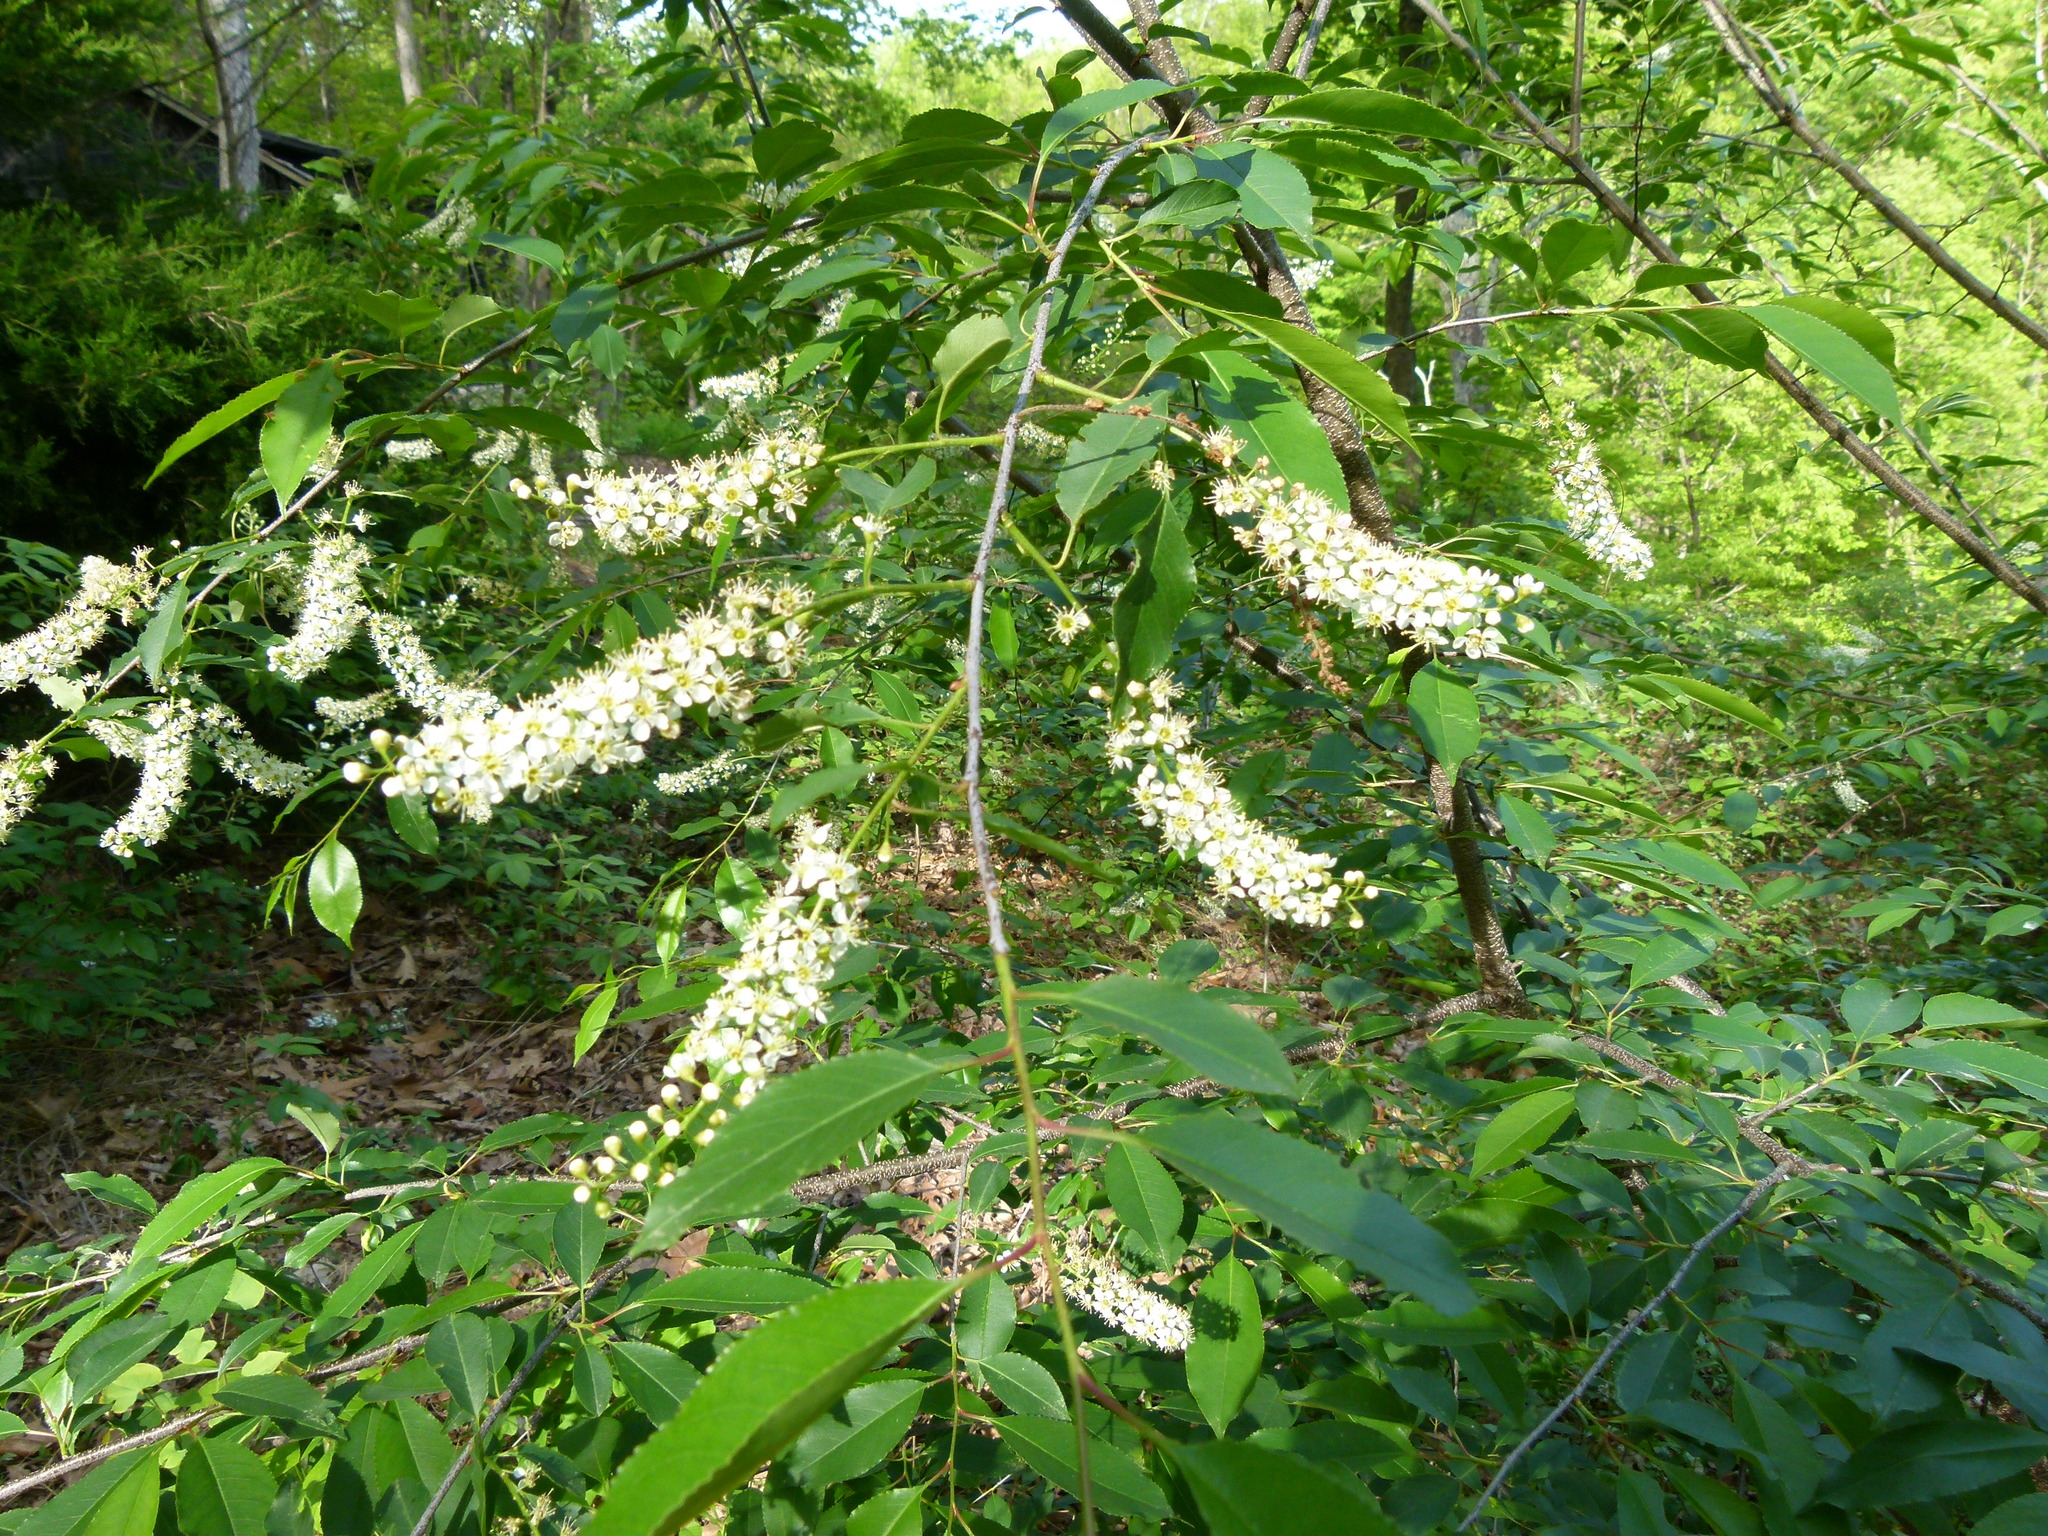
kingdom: Plantae
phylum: Tracheophyta
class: Magnoliopsida
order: Rosales
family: Rosaceae
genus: Prunus
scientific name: Prunus serotina
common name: Black cherry
